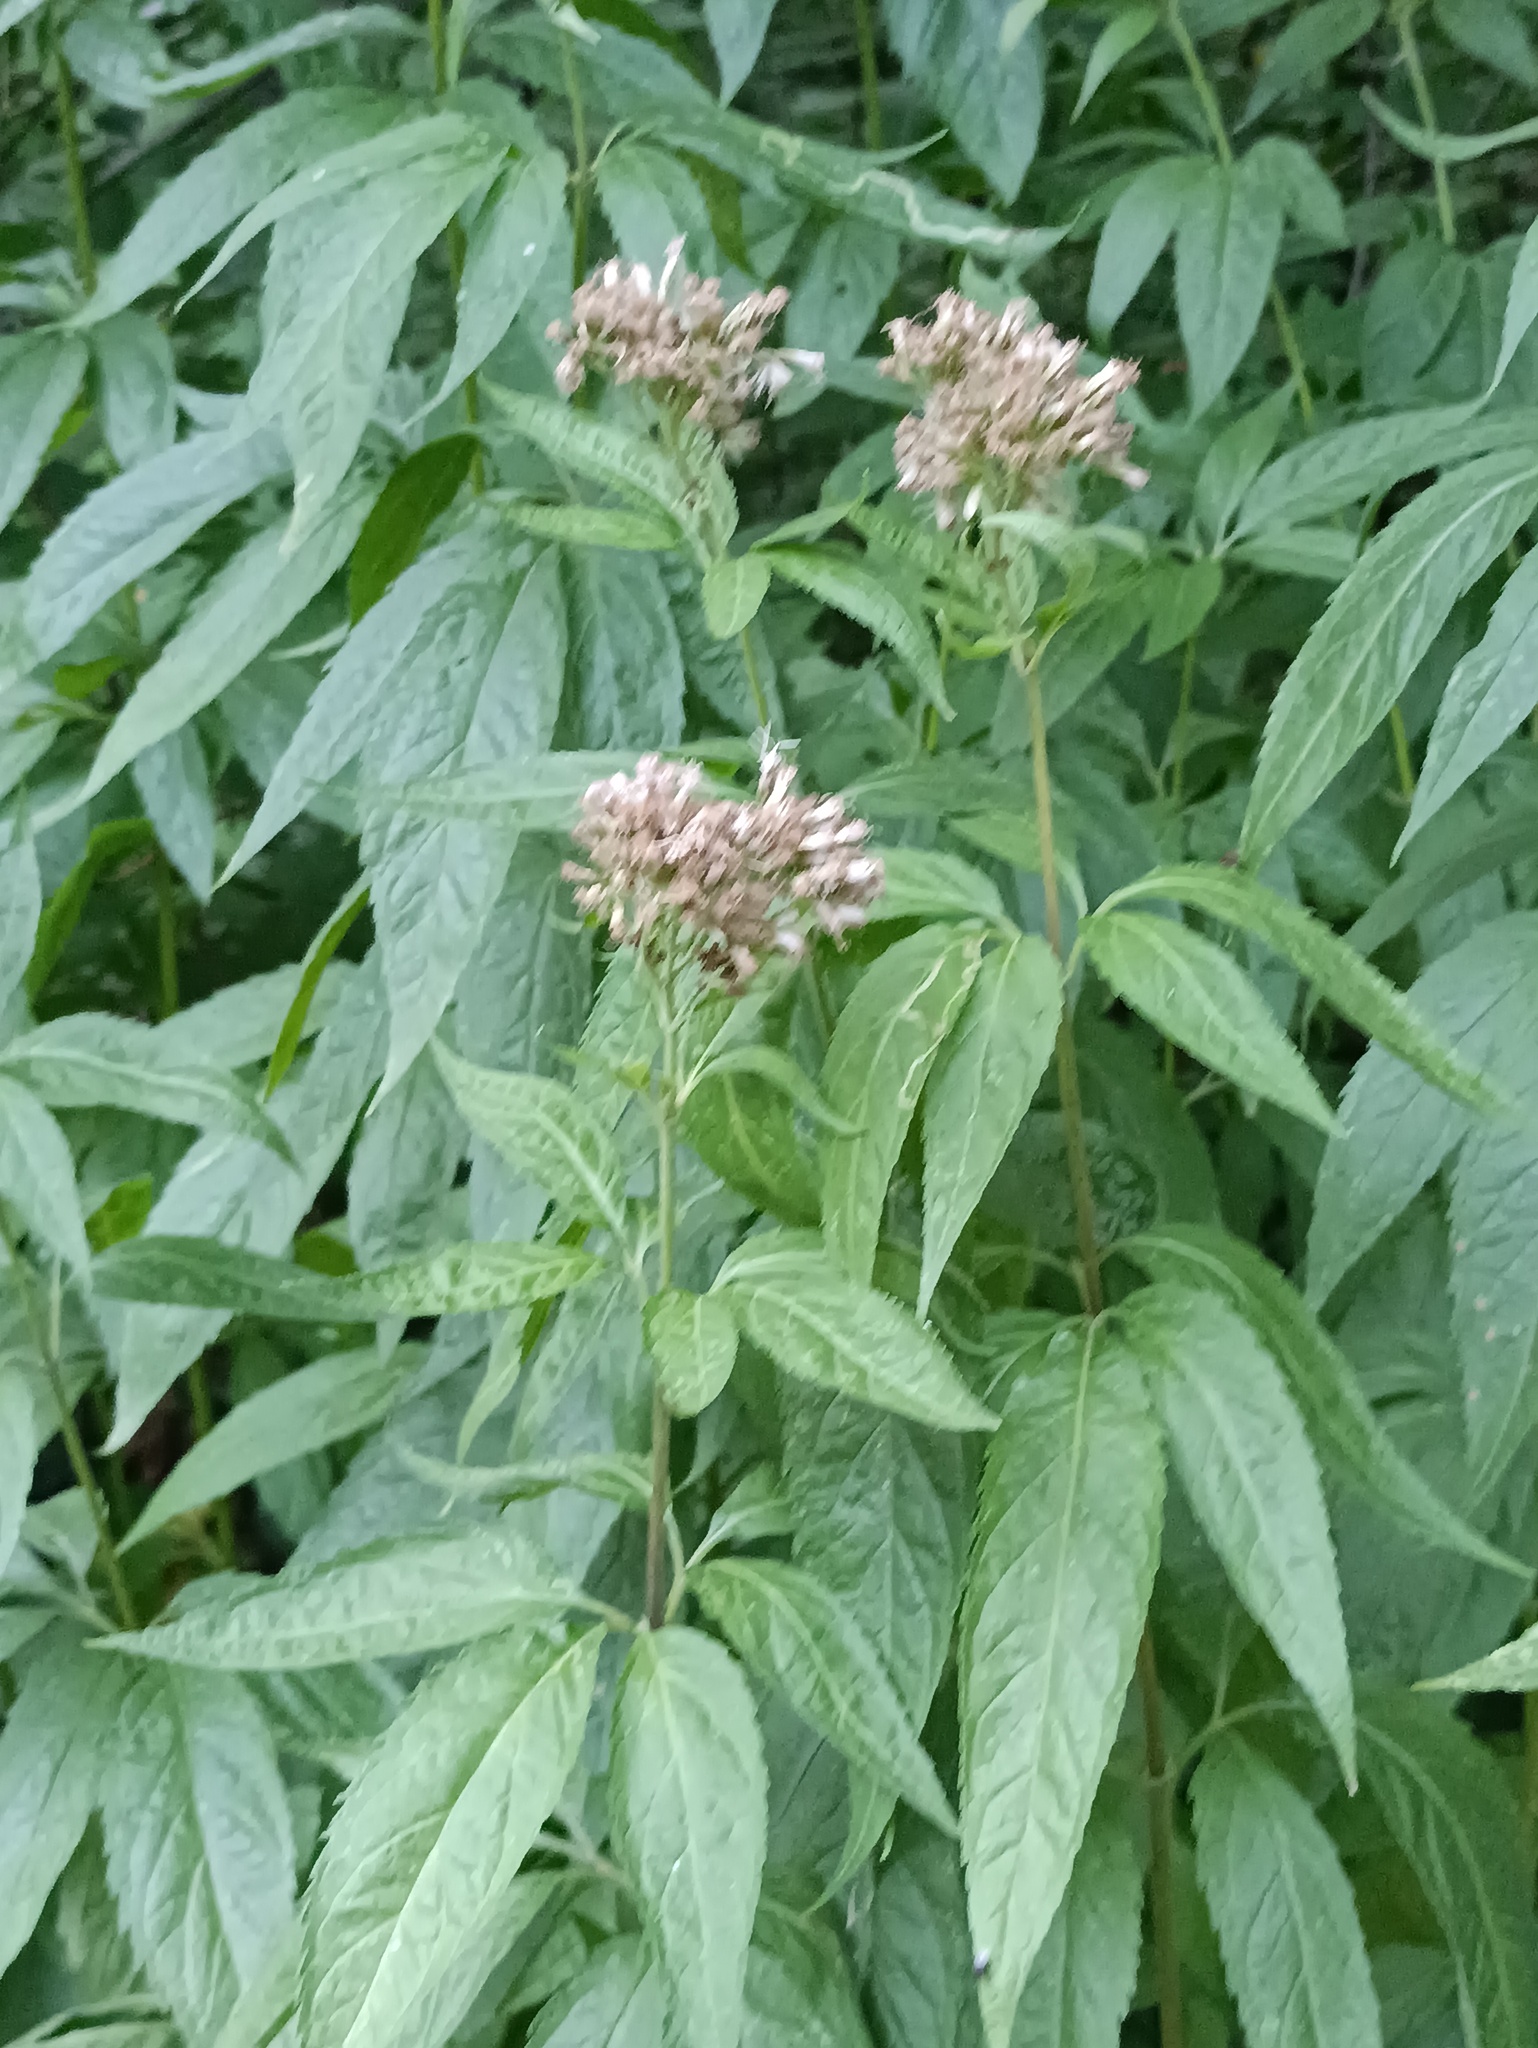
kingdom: Plantae
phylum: Tracheophyta
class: Magnoliopsida
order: Asterales
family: Asteraceae
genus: Eupatorium
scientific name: Eupatorium cannabinum
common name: Hemp-agrimony
